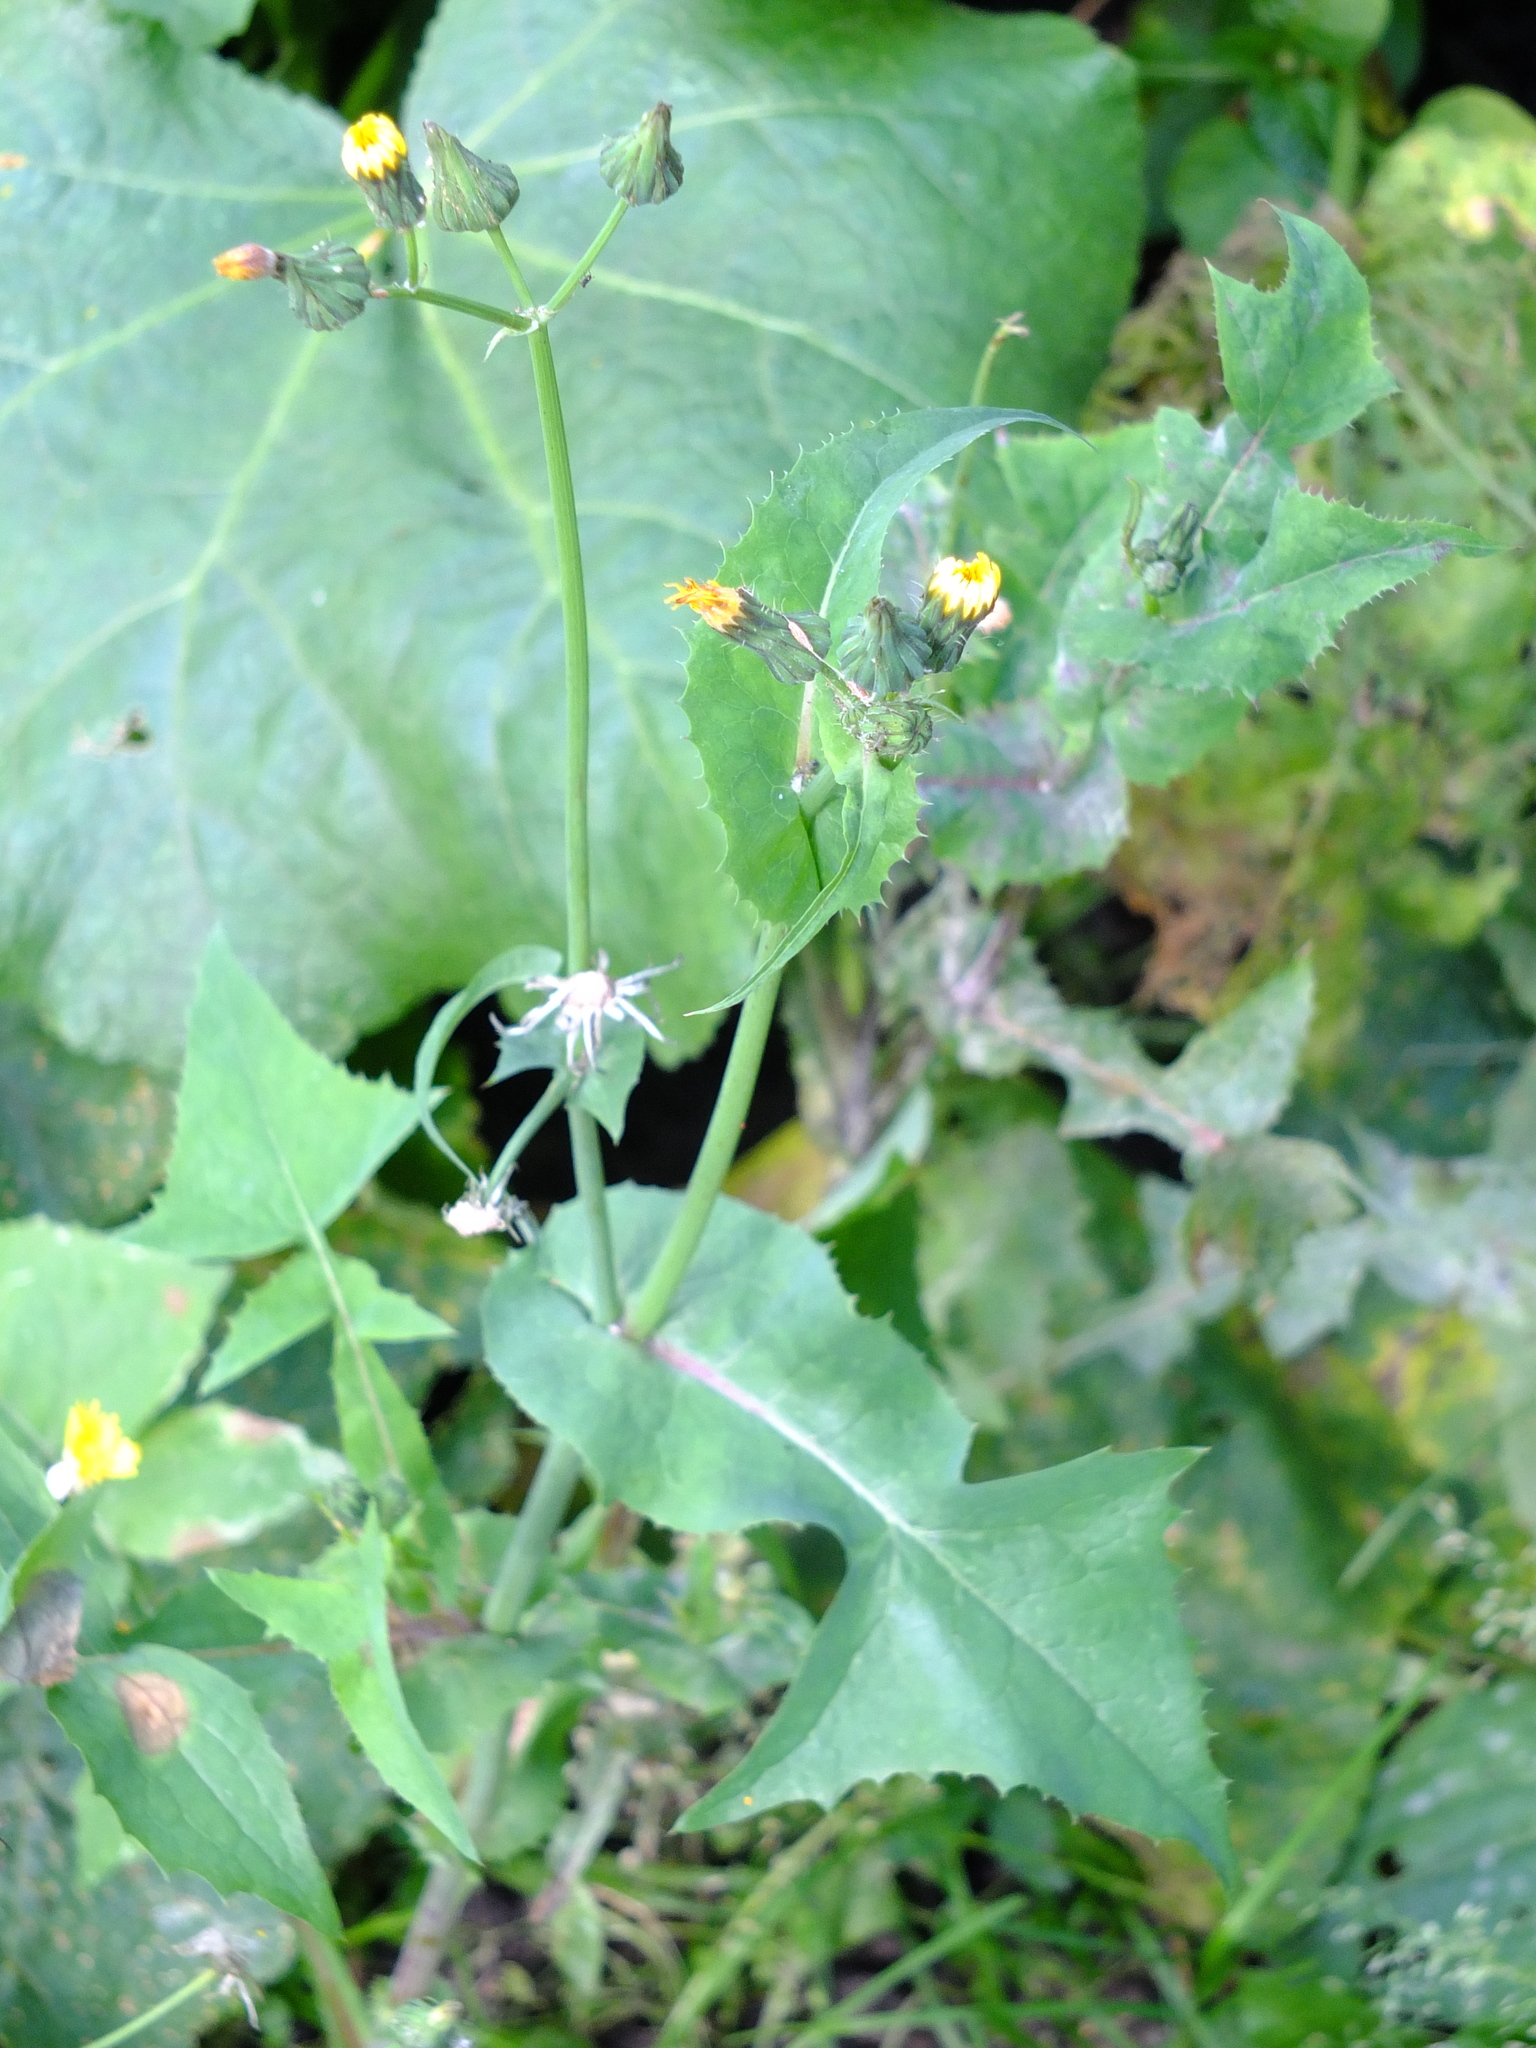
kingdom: Plantae
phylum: Tracheophyta
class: Magnoliopsida
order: Asterales
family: Asteraceae
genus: Sonchus
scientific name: Sonchus oleraceus
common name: Common sowthistle
